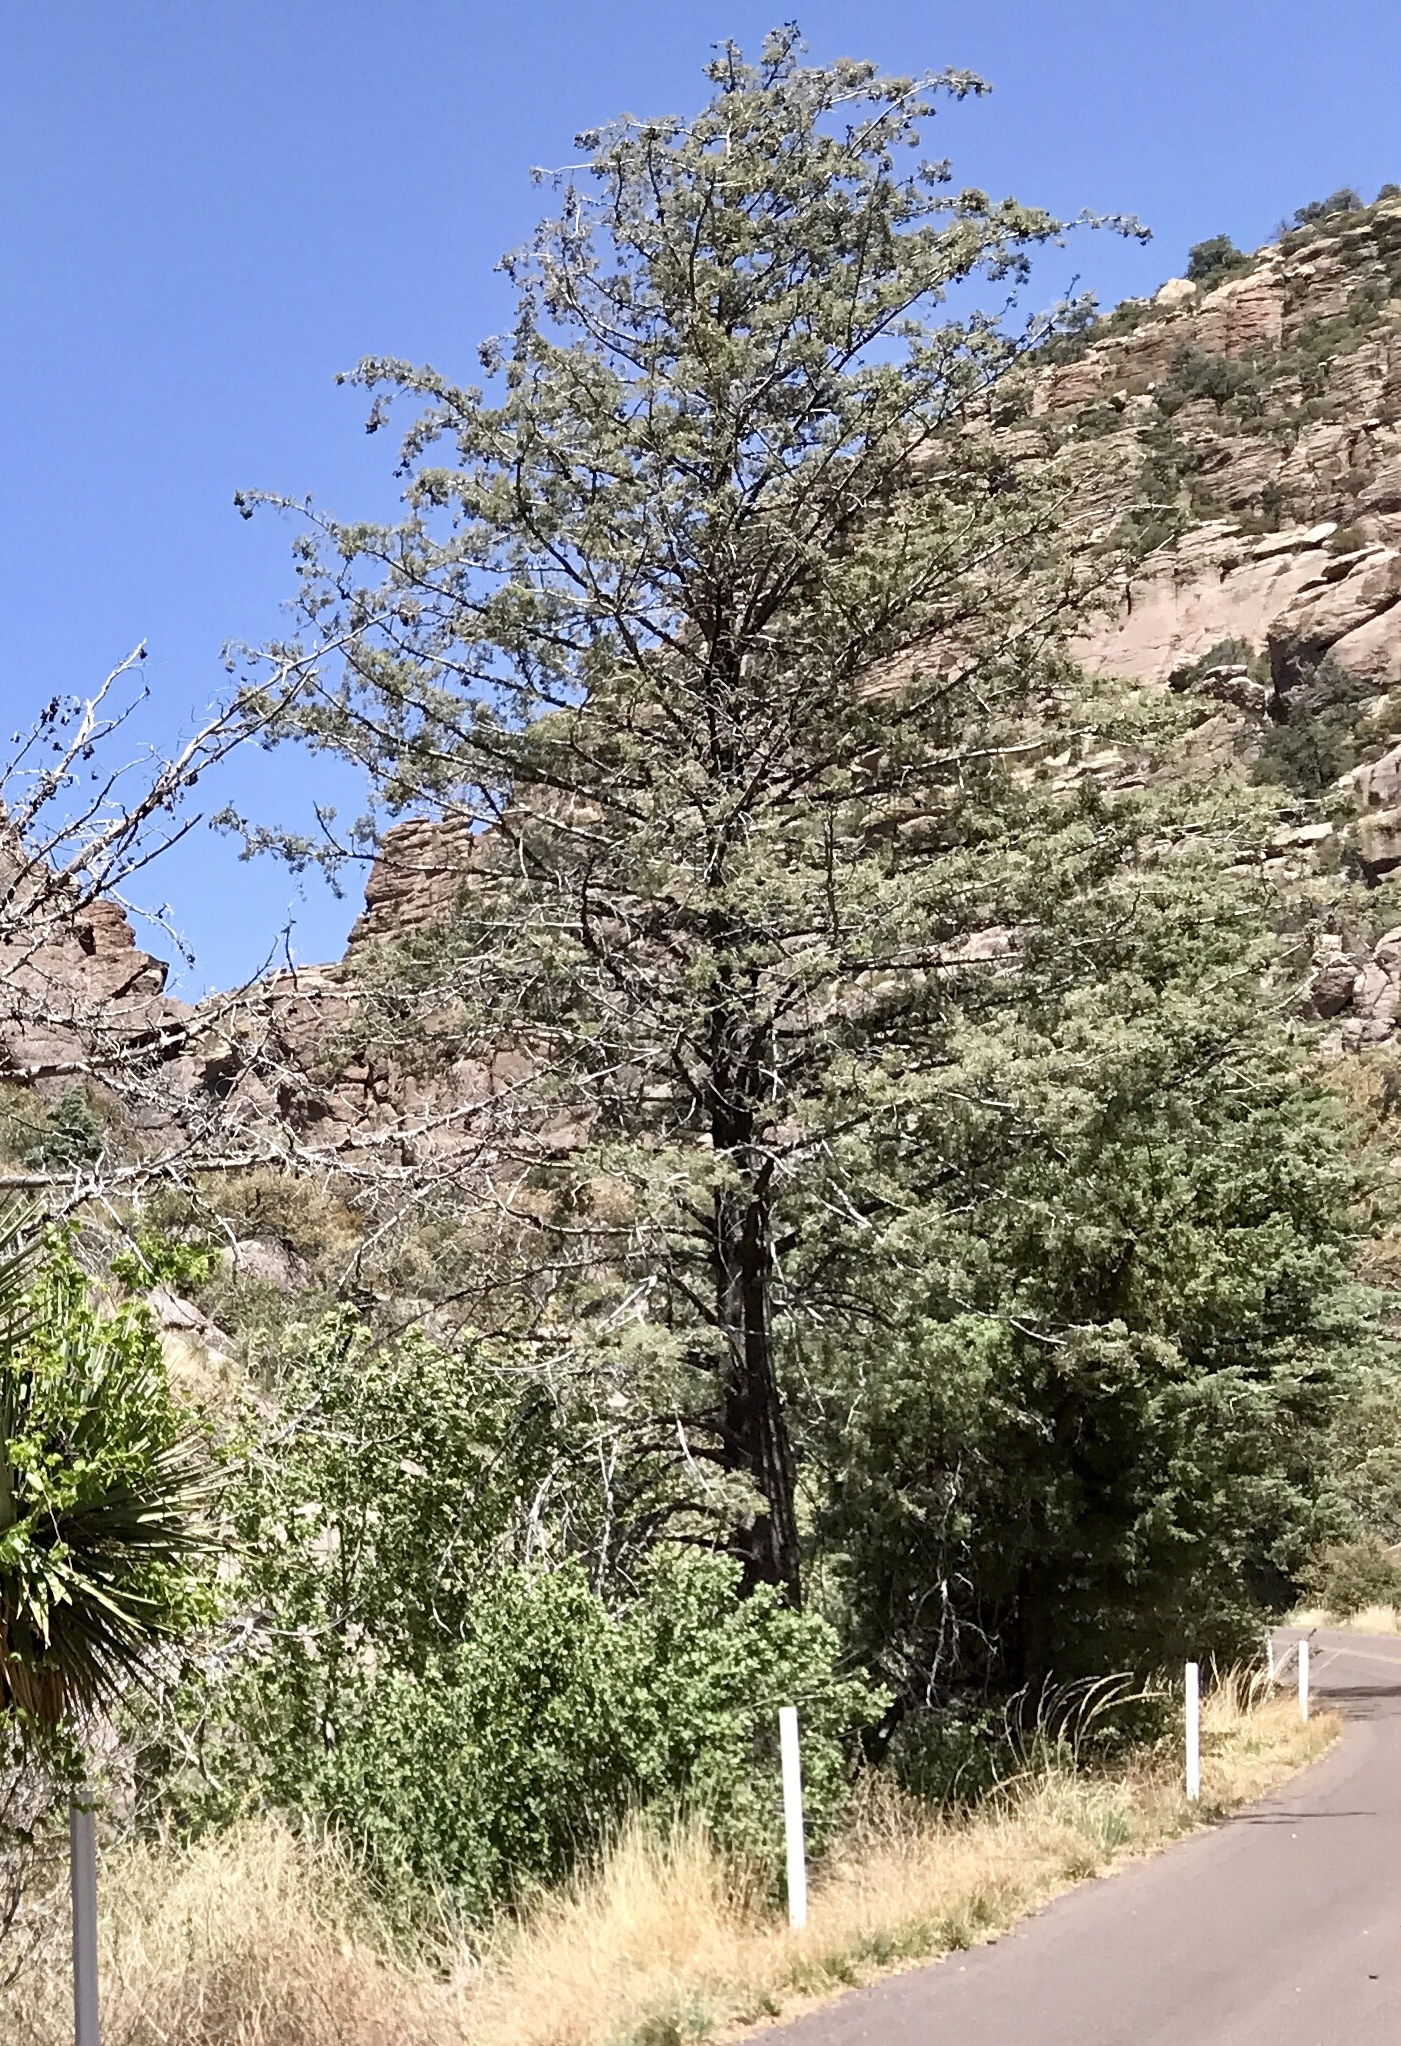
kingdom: Plantae
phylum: Tracheophyta
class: Pinopsida
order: Pinales
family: Cupressaceae
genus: Cupressus
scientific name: Cupressus arizonica
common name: Arizona cypress
